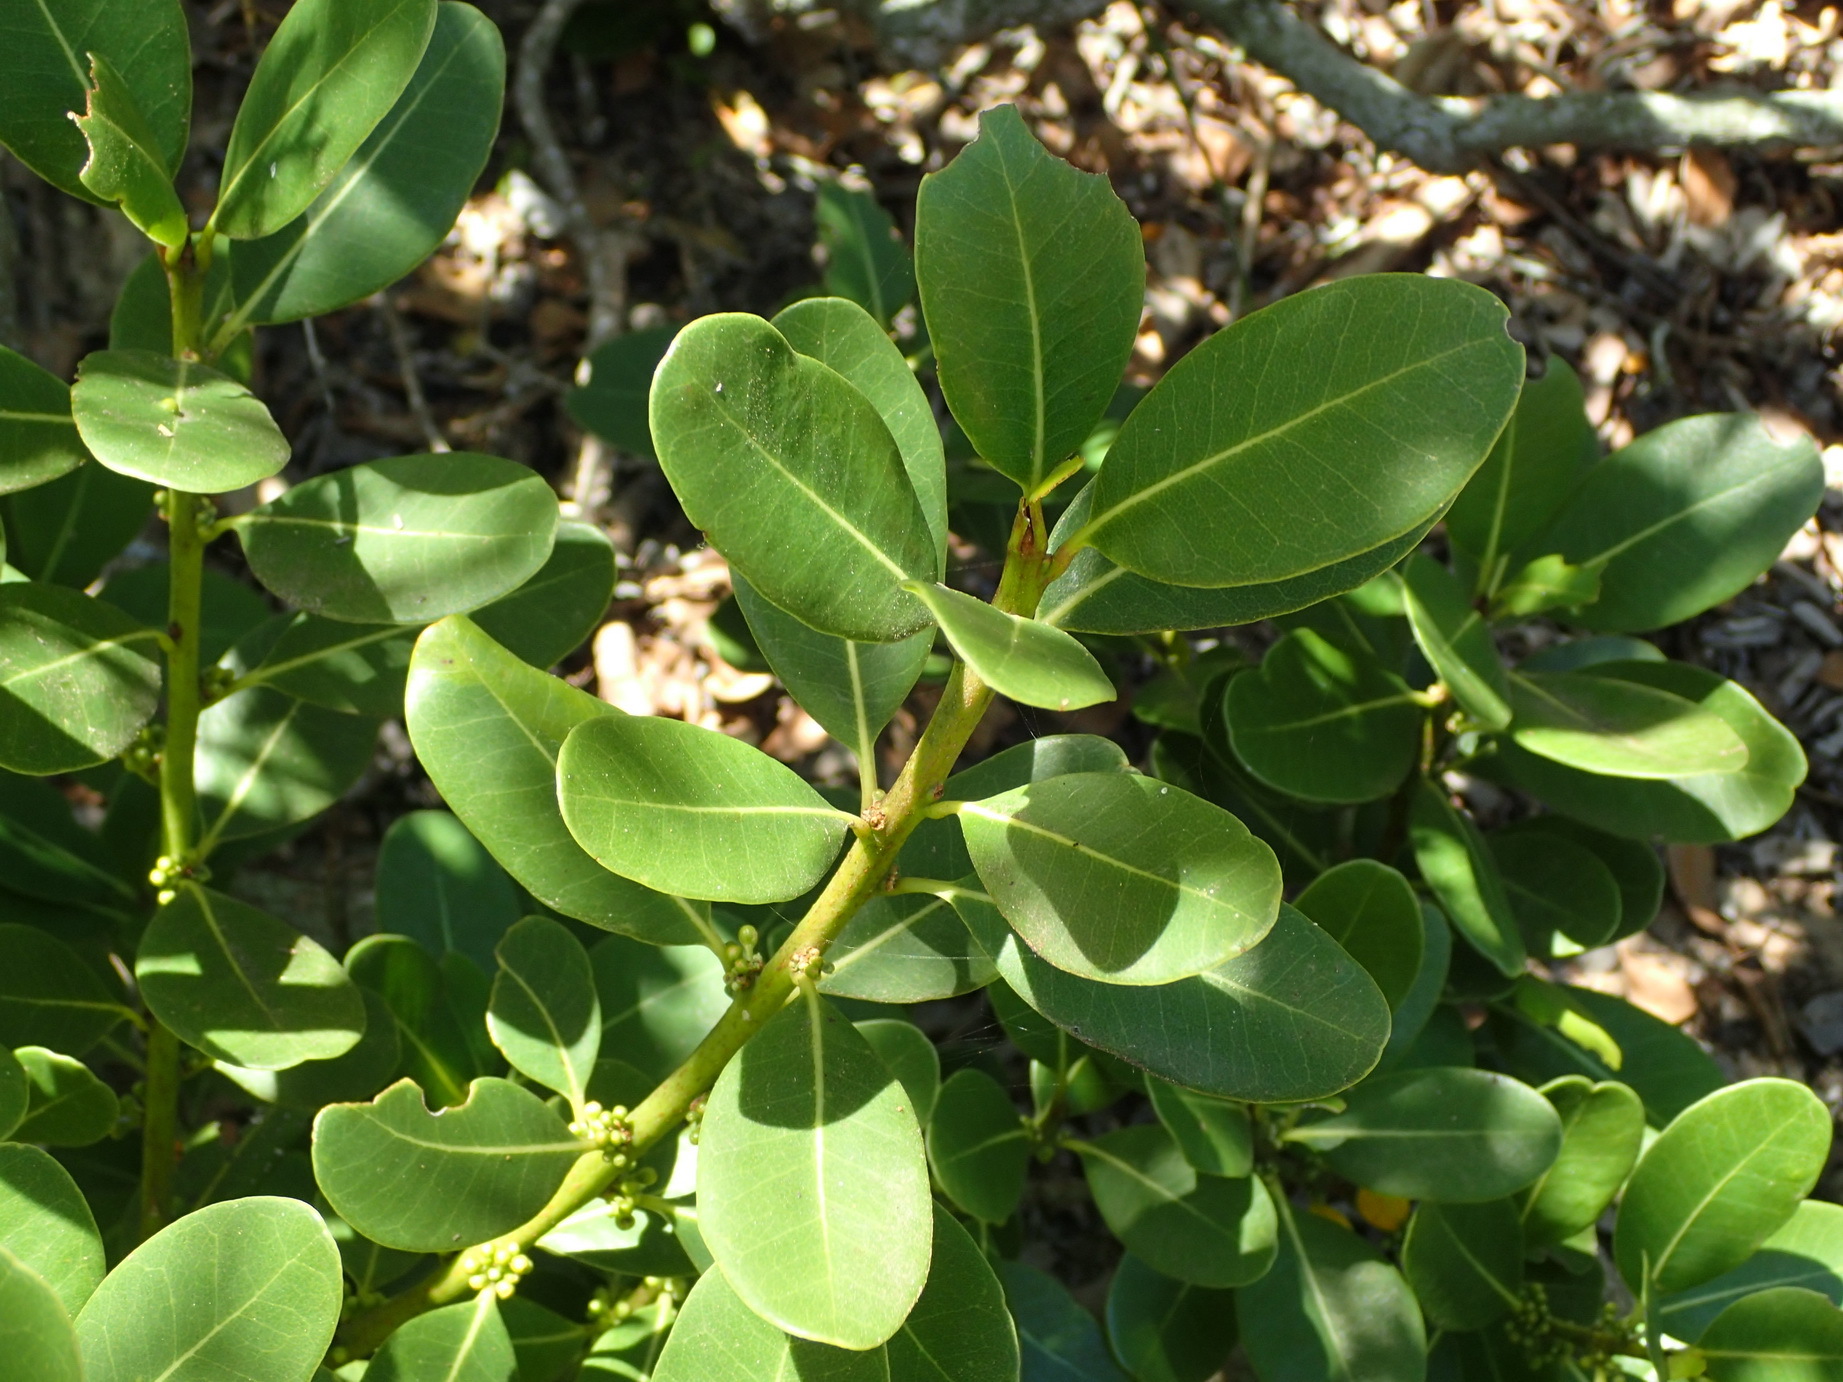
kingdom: Plantae
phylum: Tracheophyta
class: Magnoliopsida
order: Ericales
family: Sapotaceae
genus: Sideroxylon
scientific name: Sideroxylon inerme
